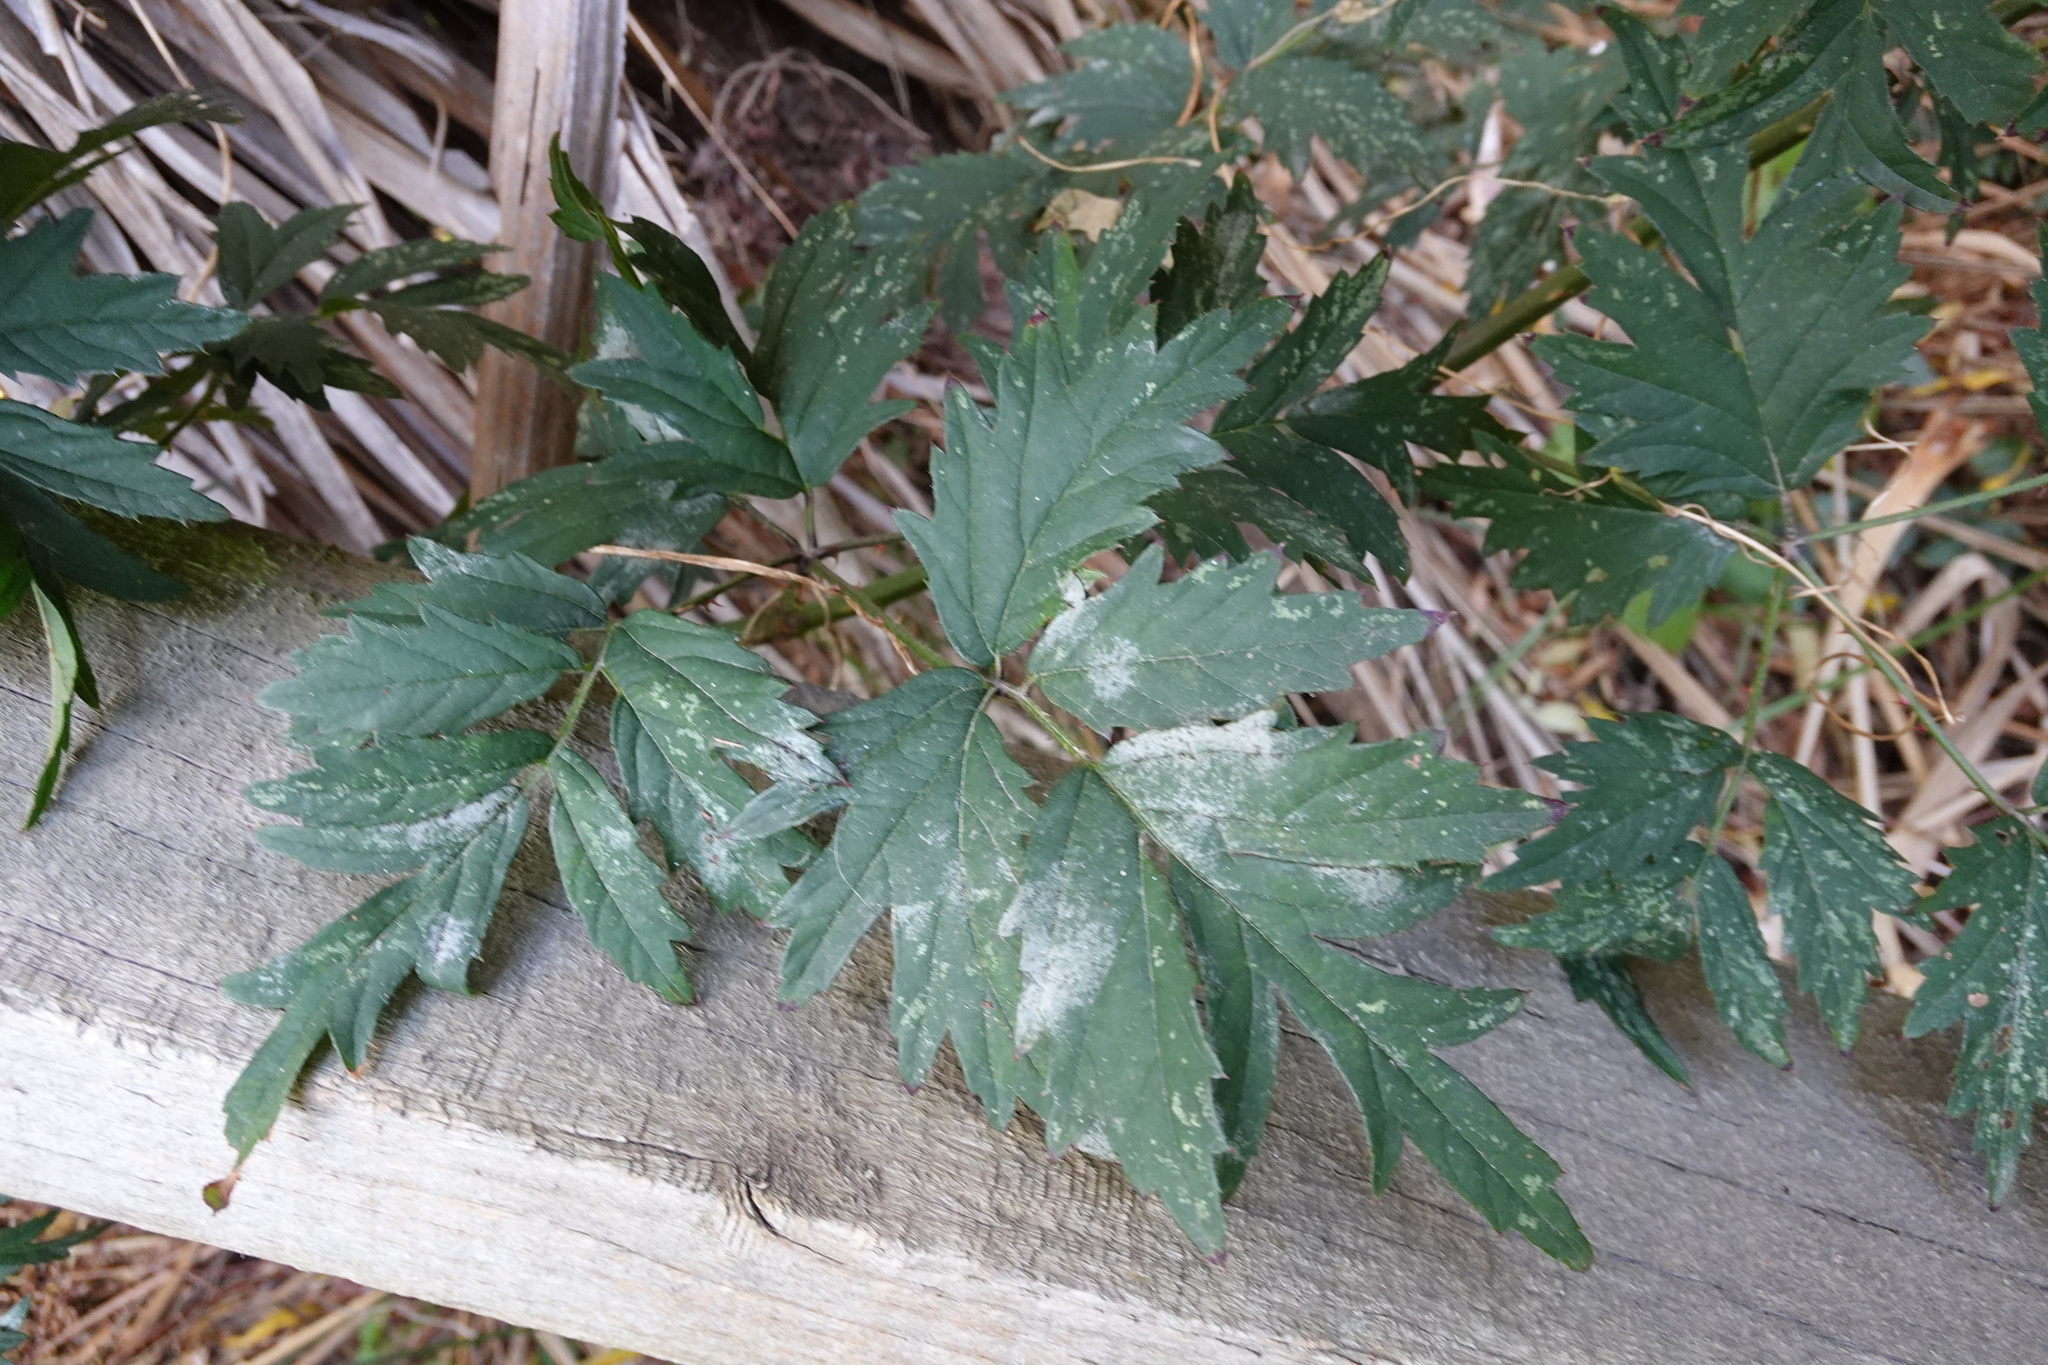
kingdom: Plantae
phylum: Tracheophyta
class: Magnoliopsida
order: Rosales
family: Rosaceae
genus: Rubus
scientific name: Rubus laciniatus
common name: Evergreen blackberry
